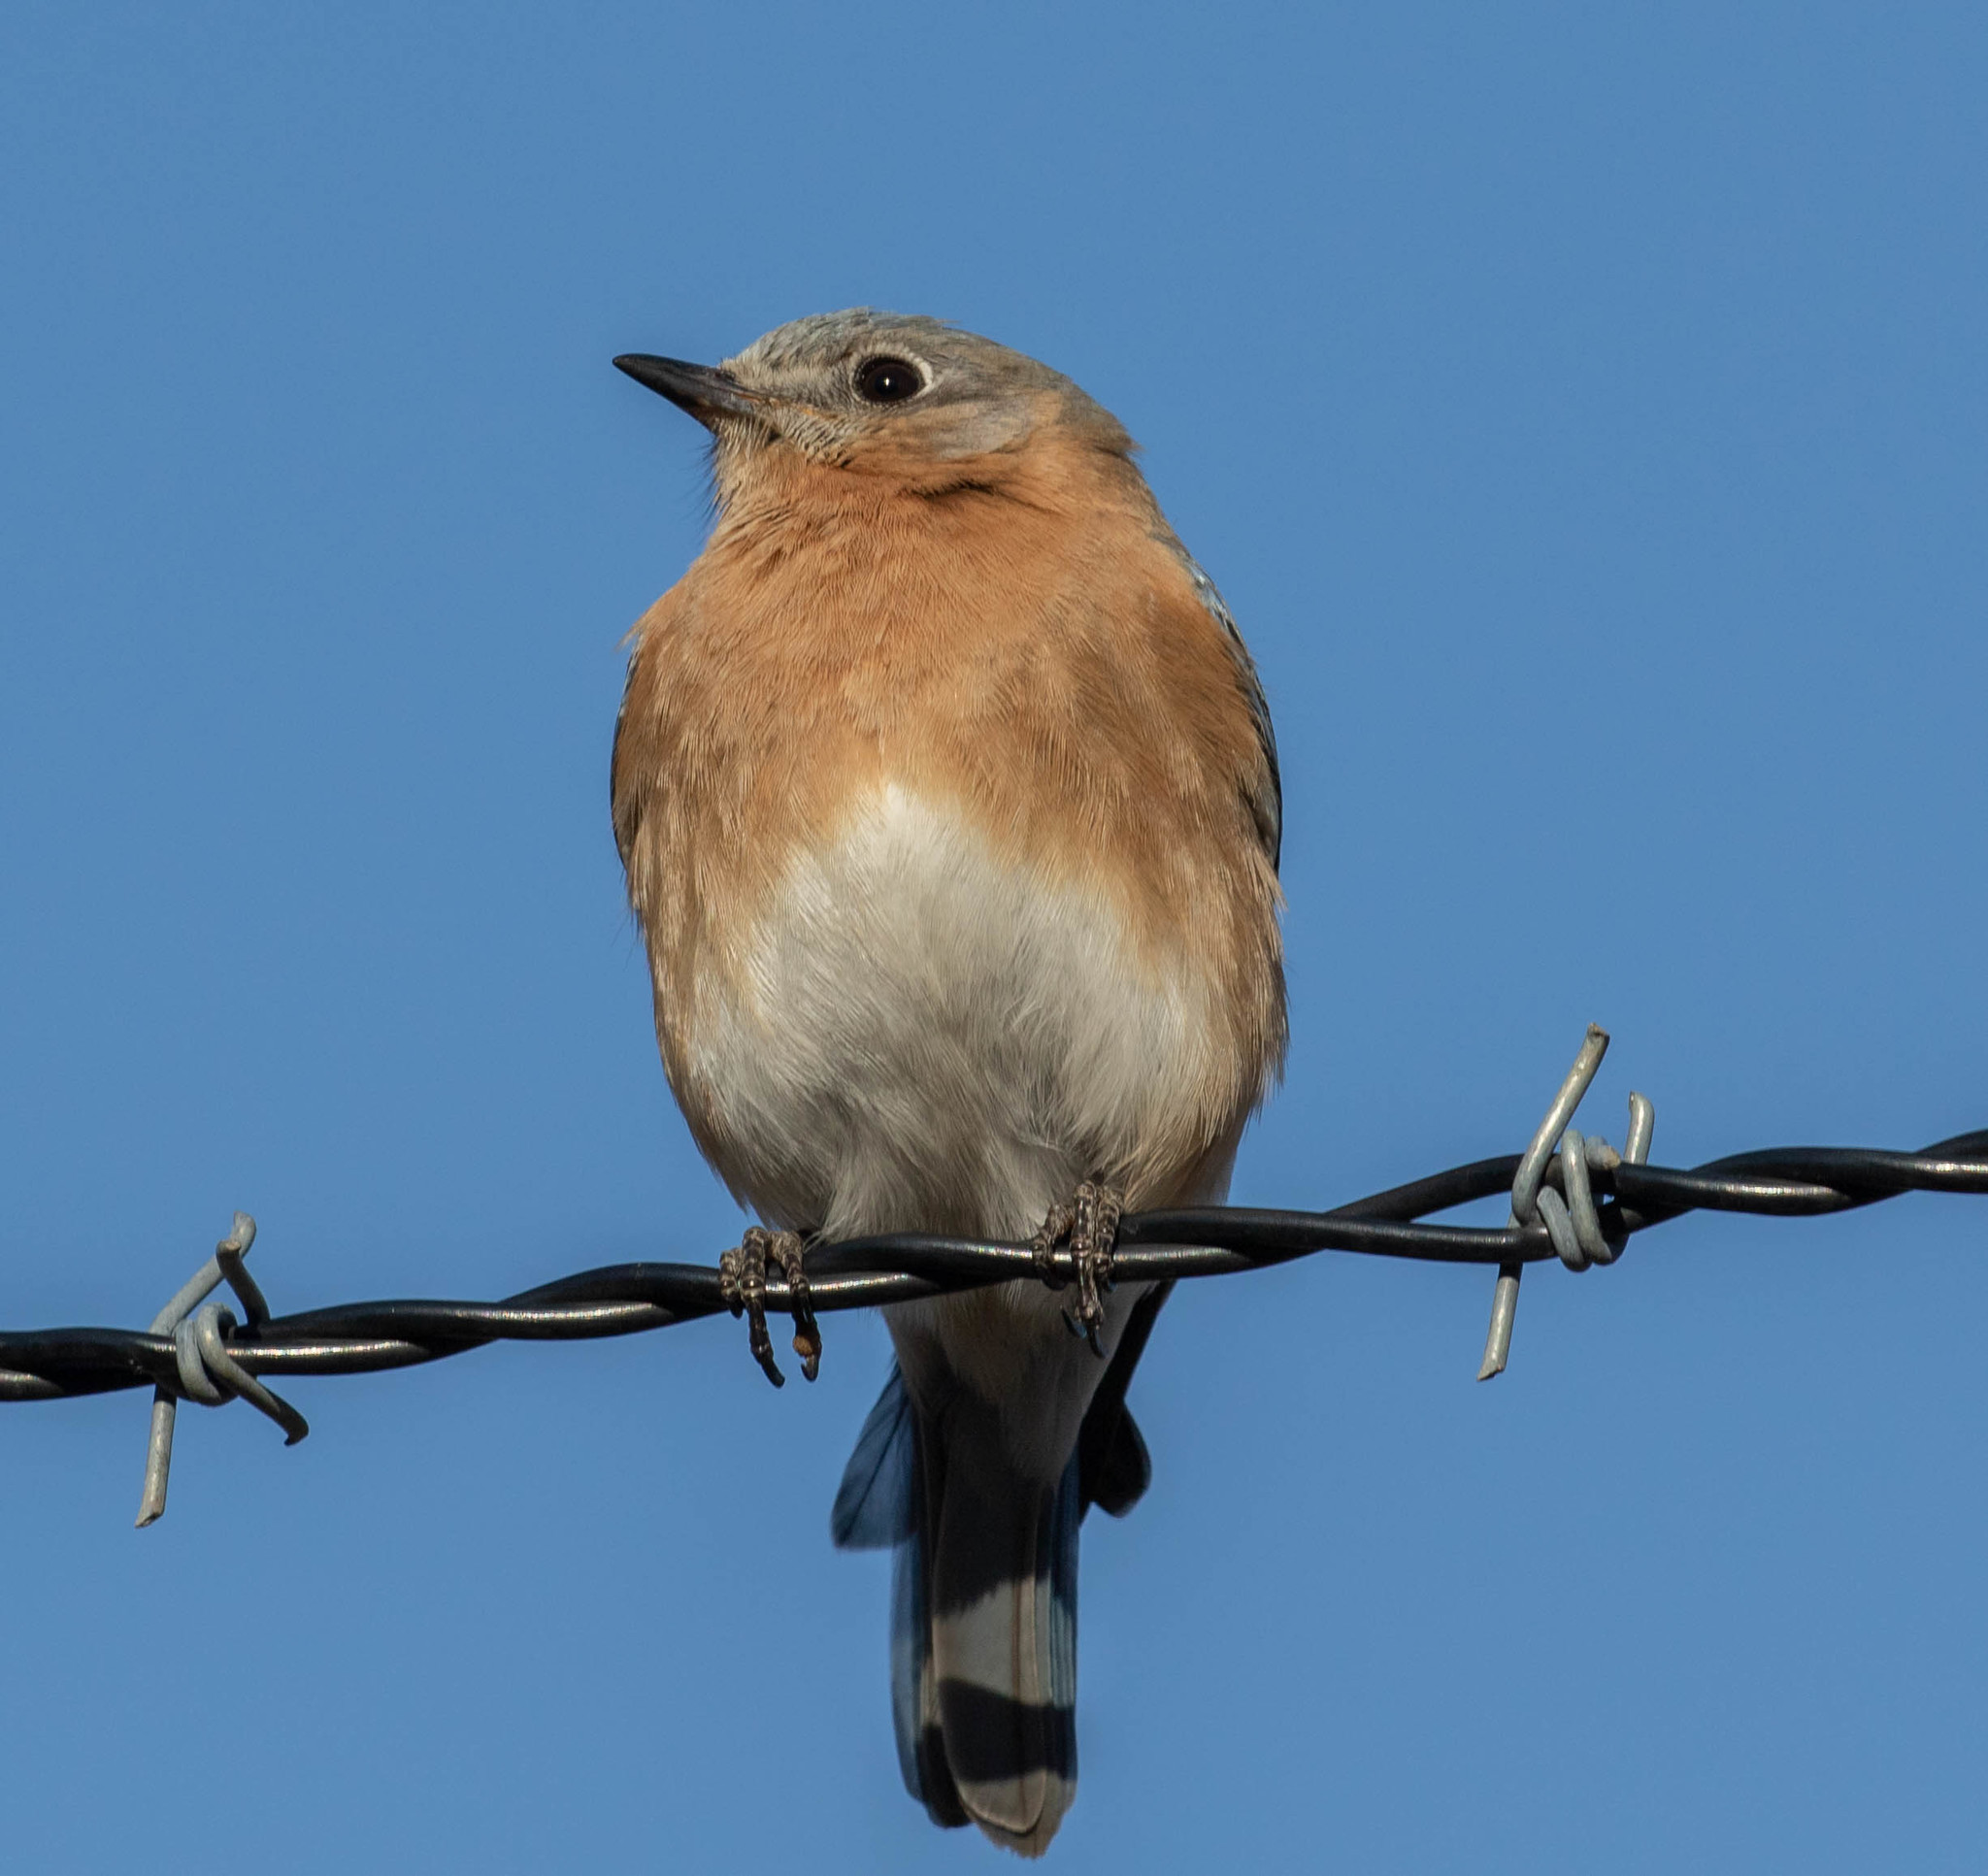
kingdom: Animalia
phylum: Chordata
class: Aves
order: Passeriformes
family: Turdidae
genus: Sialia
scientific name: Sialia sialis
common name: Eastern bluebird
